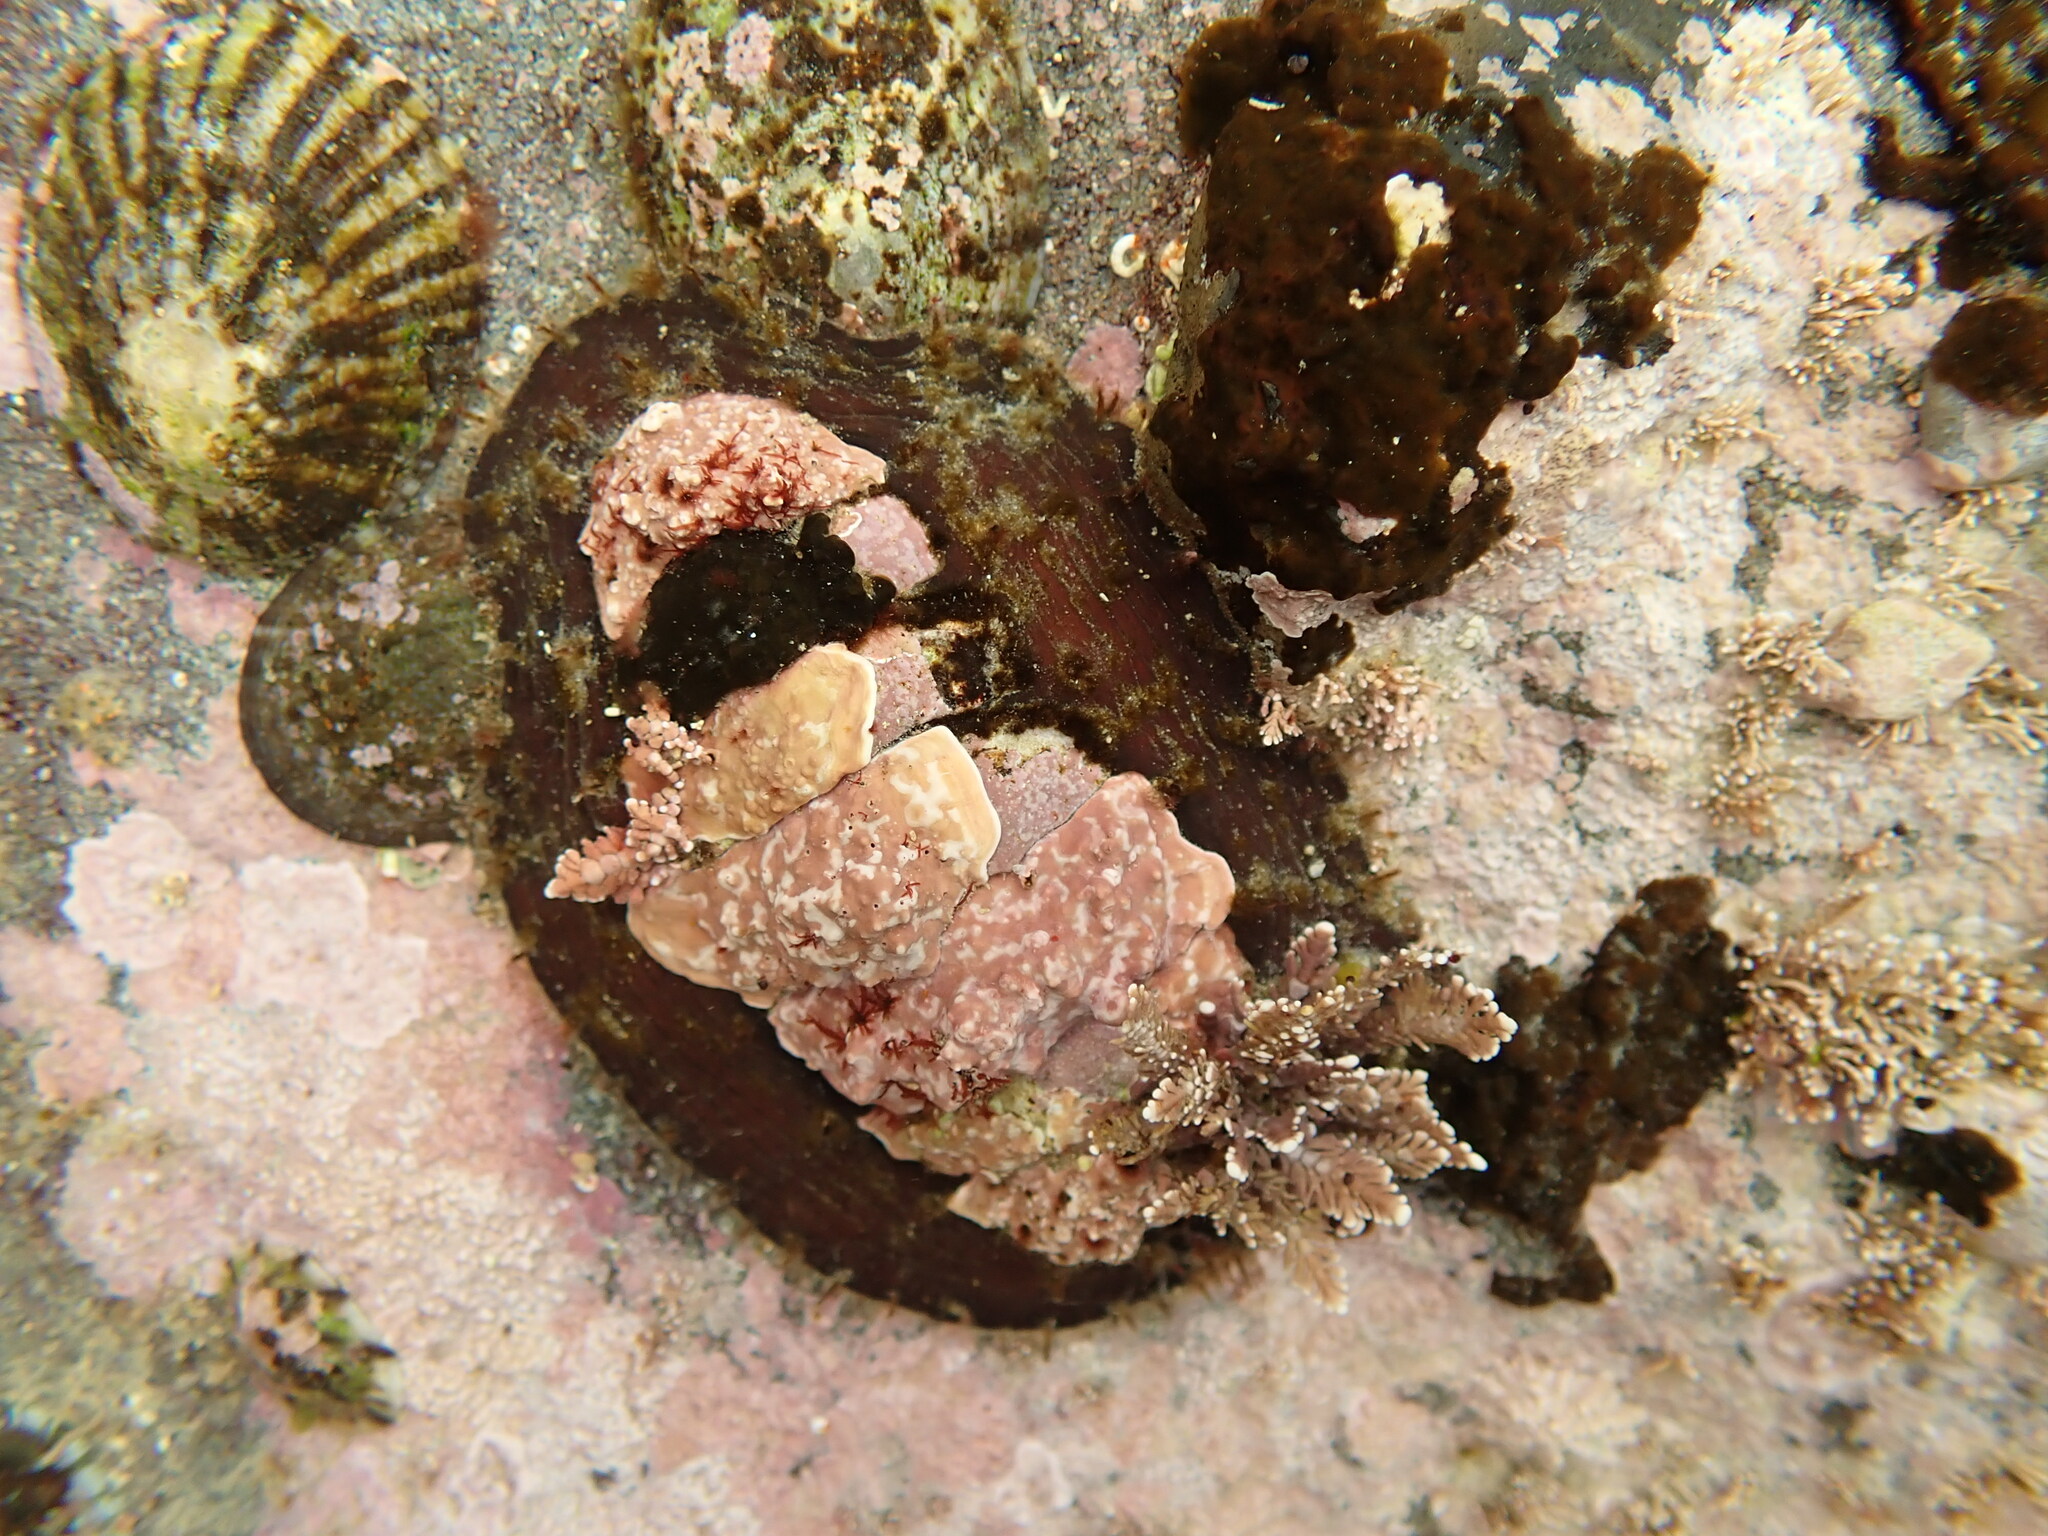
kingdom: Animalia
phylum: Mollusca
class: Polyplacophora
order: Chitonida
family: Mopaliidae
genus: Plaxiphora
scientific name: Plaxiphora biramosa
